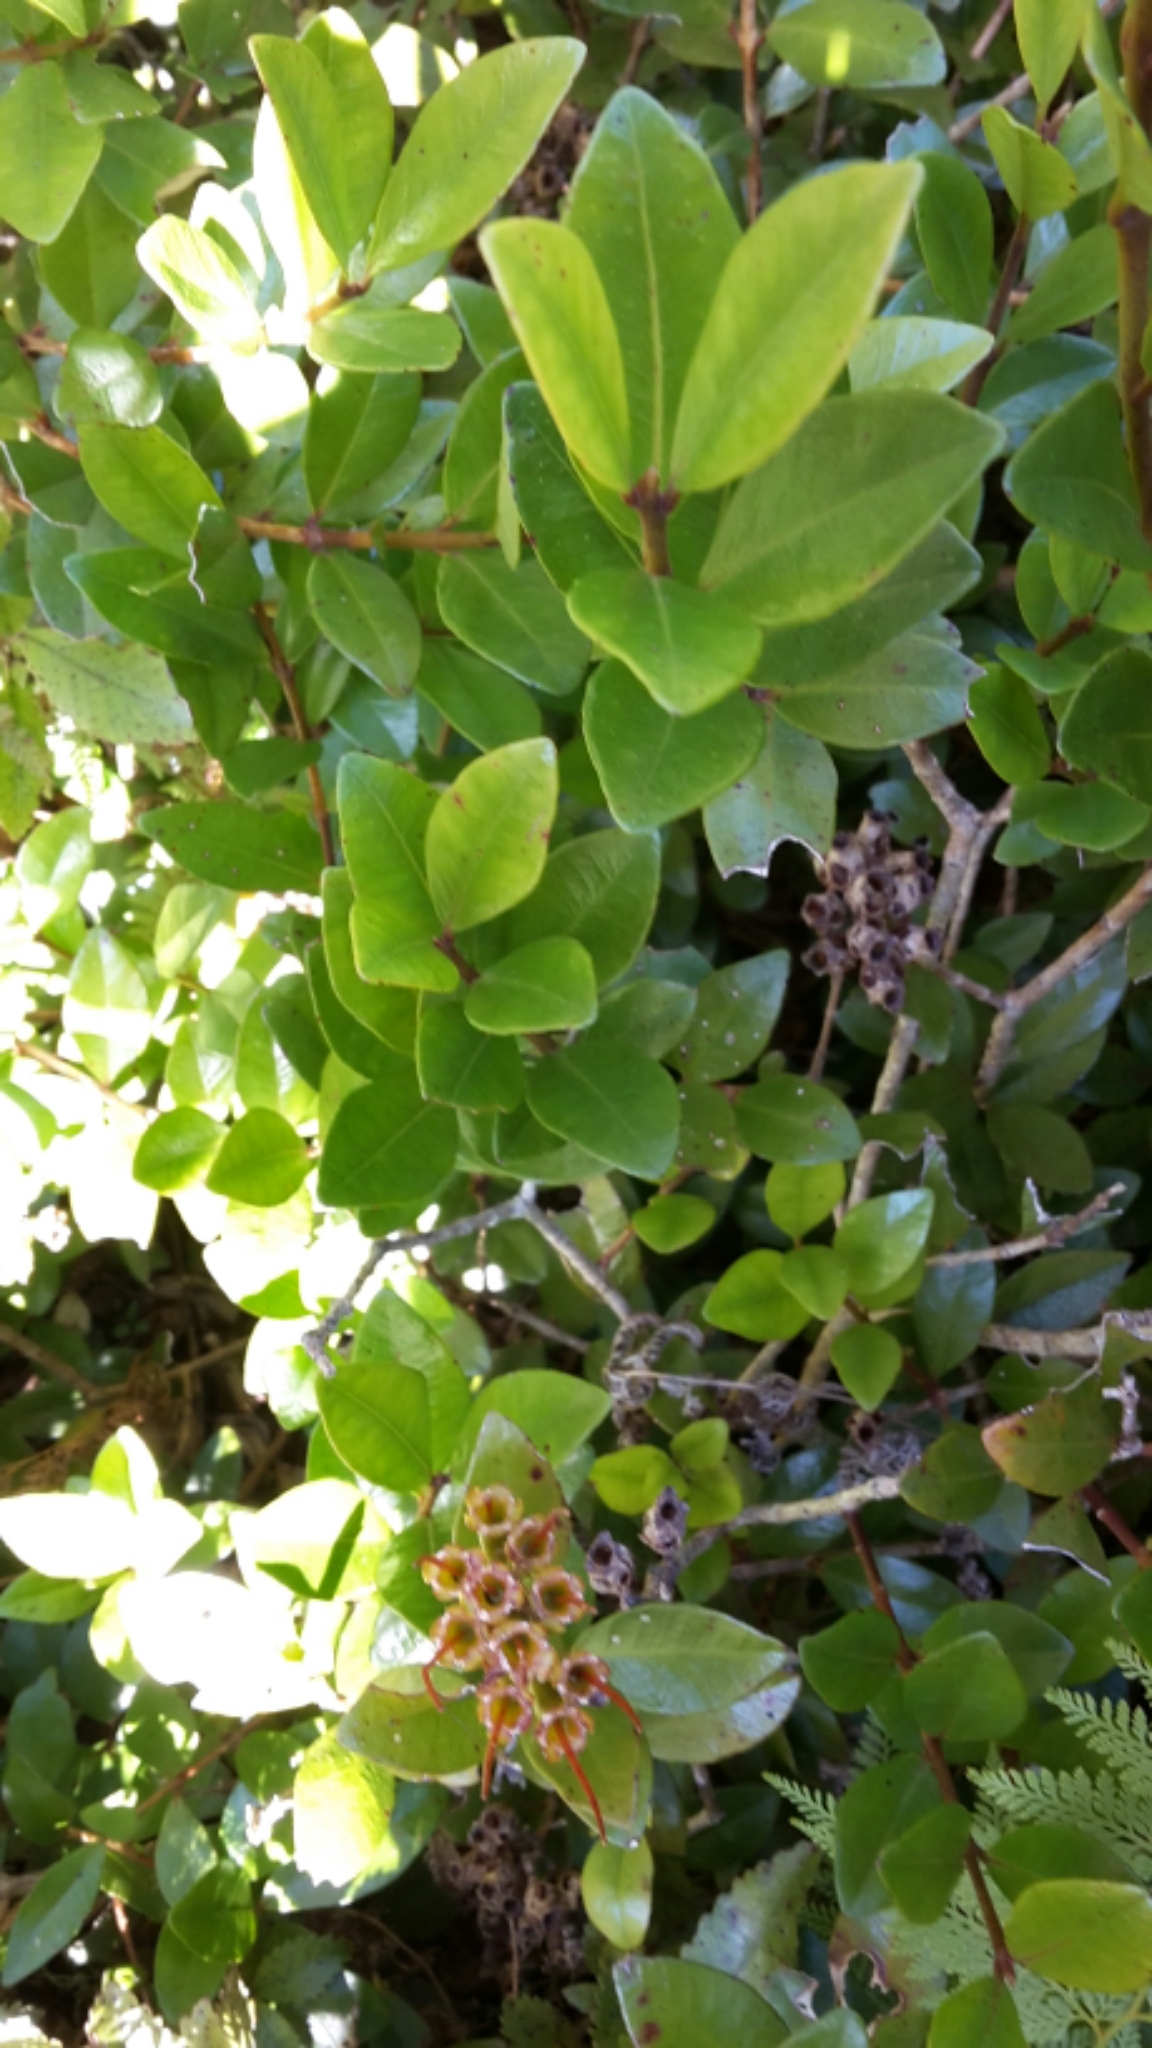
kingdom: Plantae
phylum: Tracheophyta
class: Magnoliopsida
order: Myrtales
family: Myrtaceae
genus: Metrosideros
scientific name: Metrosideros fulgens
